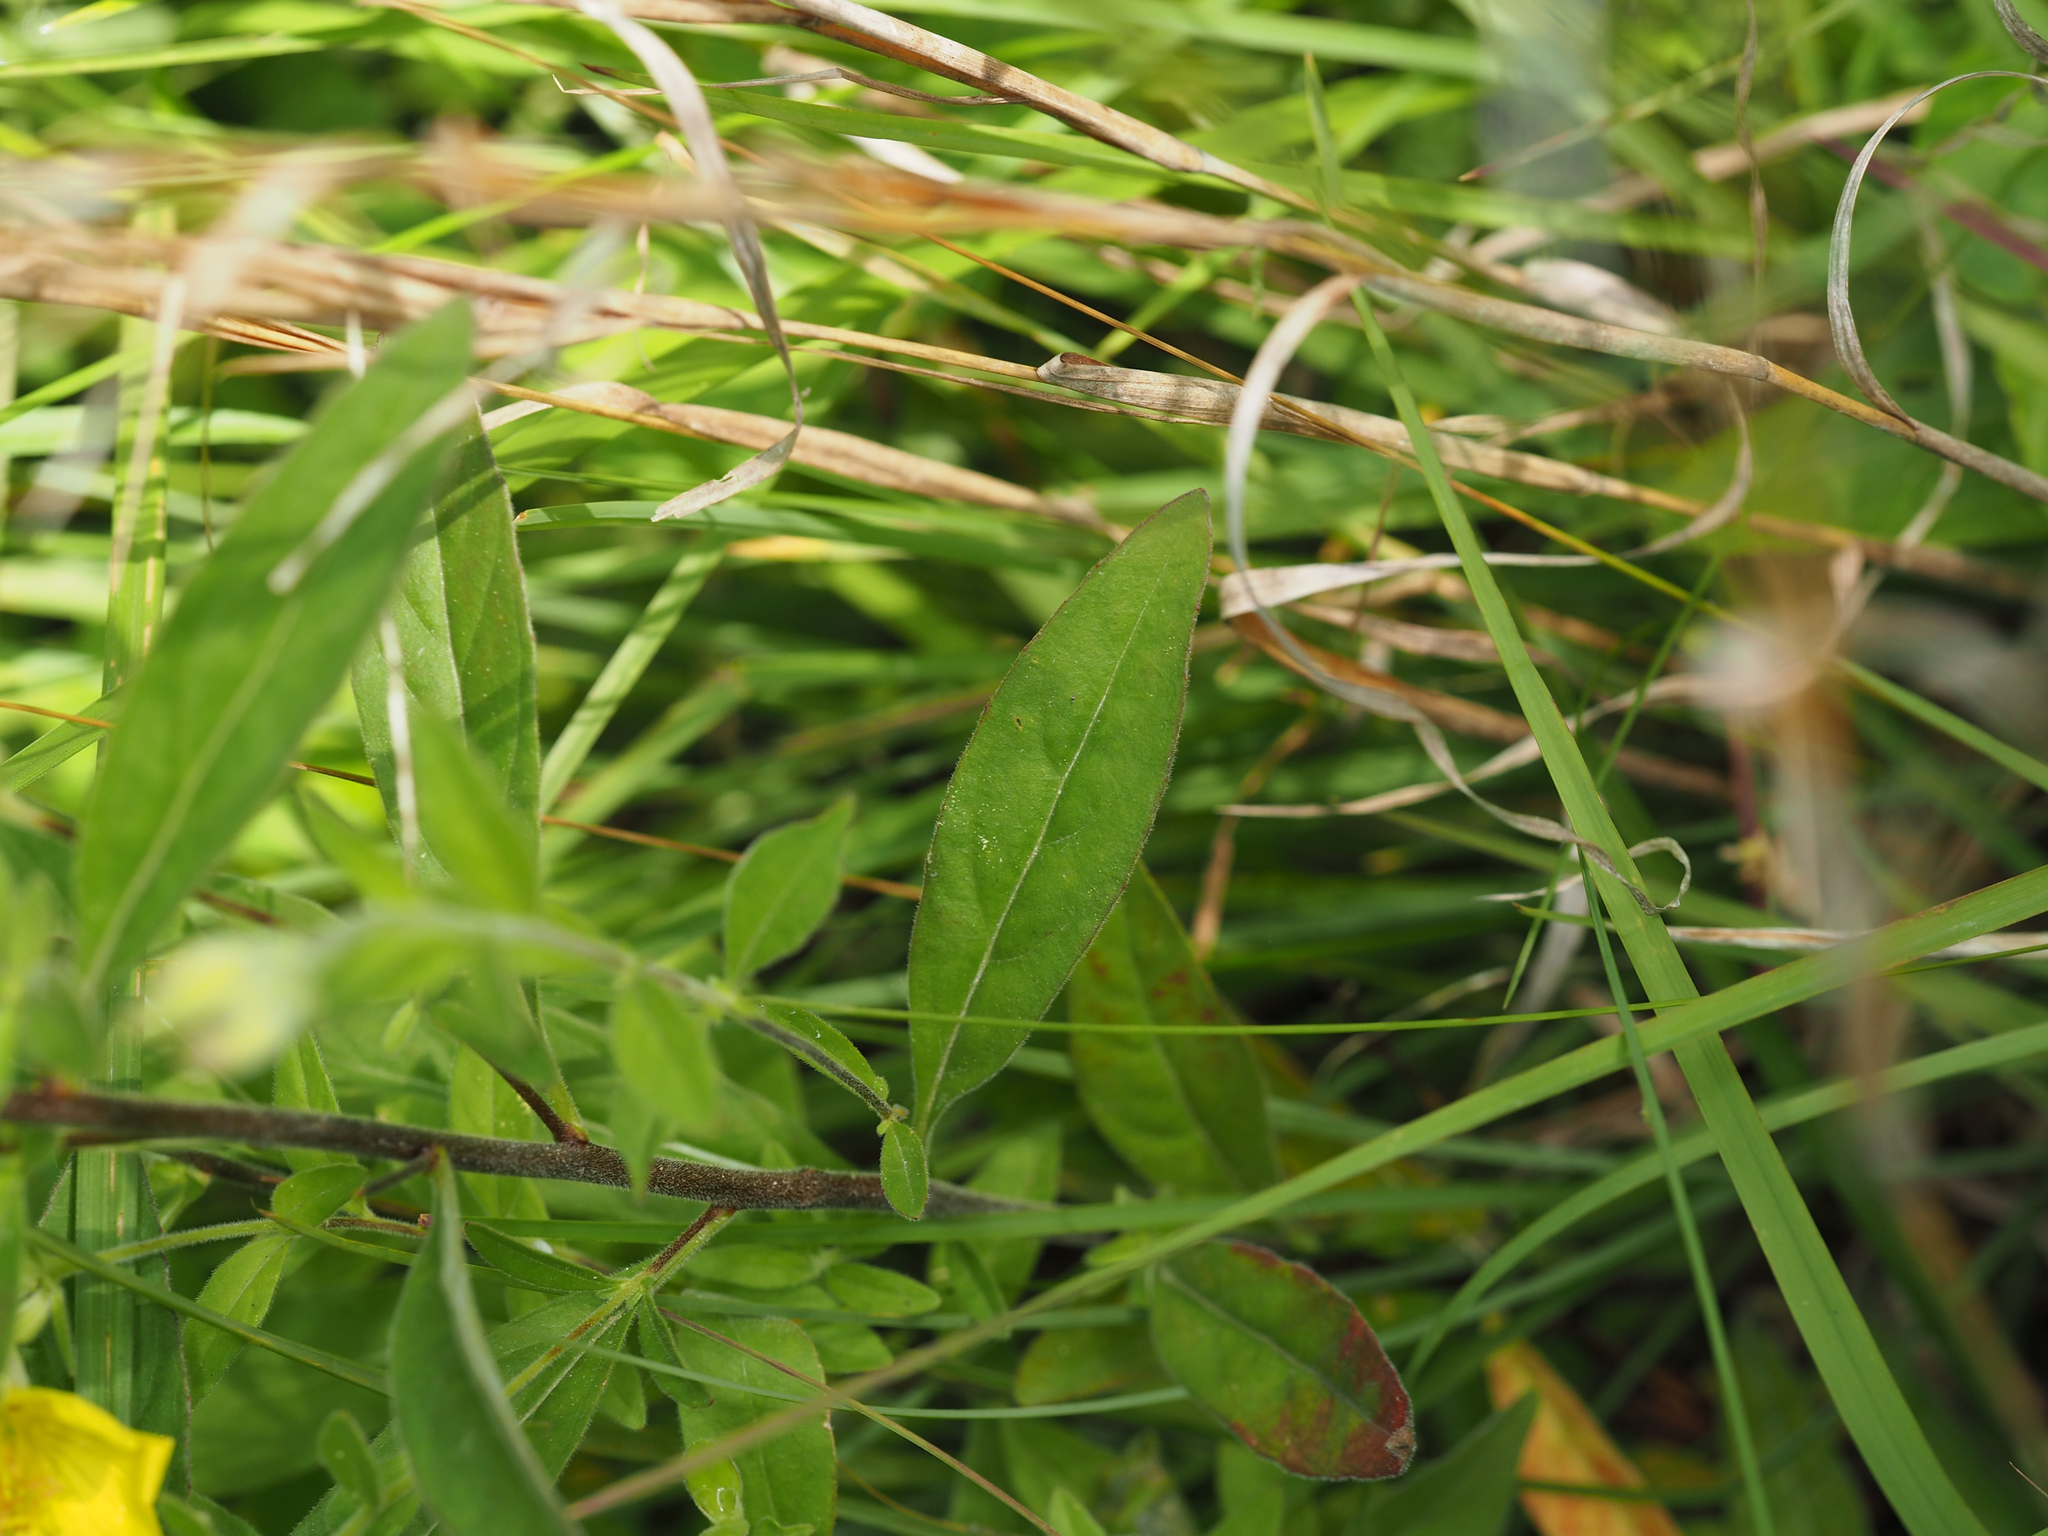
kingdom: Plantae
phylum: Tracheophyta
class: Magnoliopsida
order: Myrtales
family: Onagraceae
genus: Oenothera
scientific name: Oenothera fruticosa
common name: Southern sundrops
